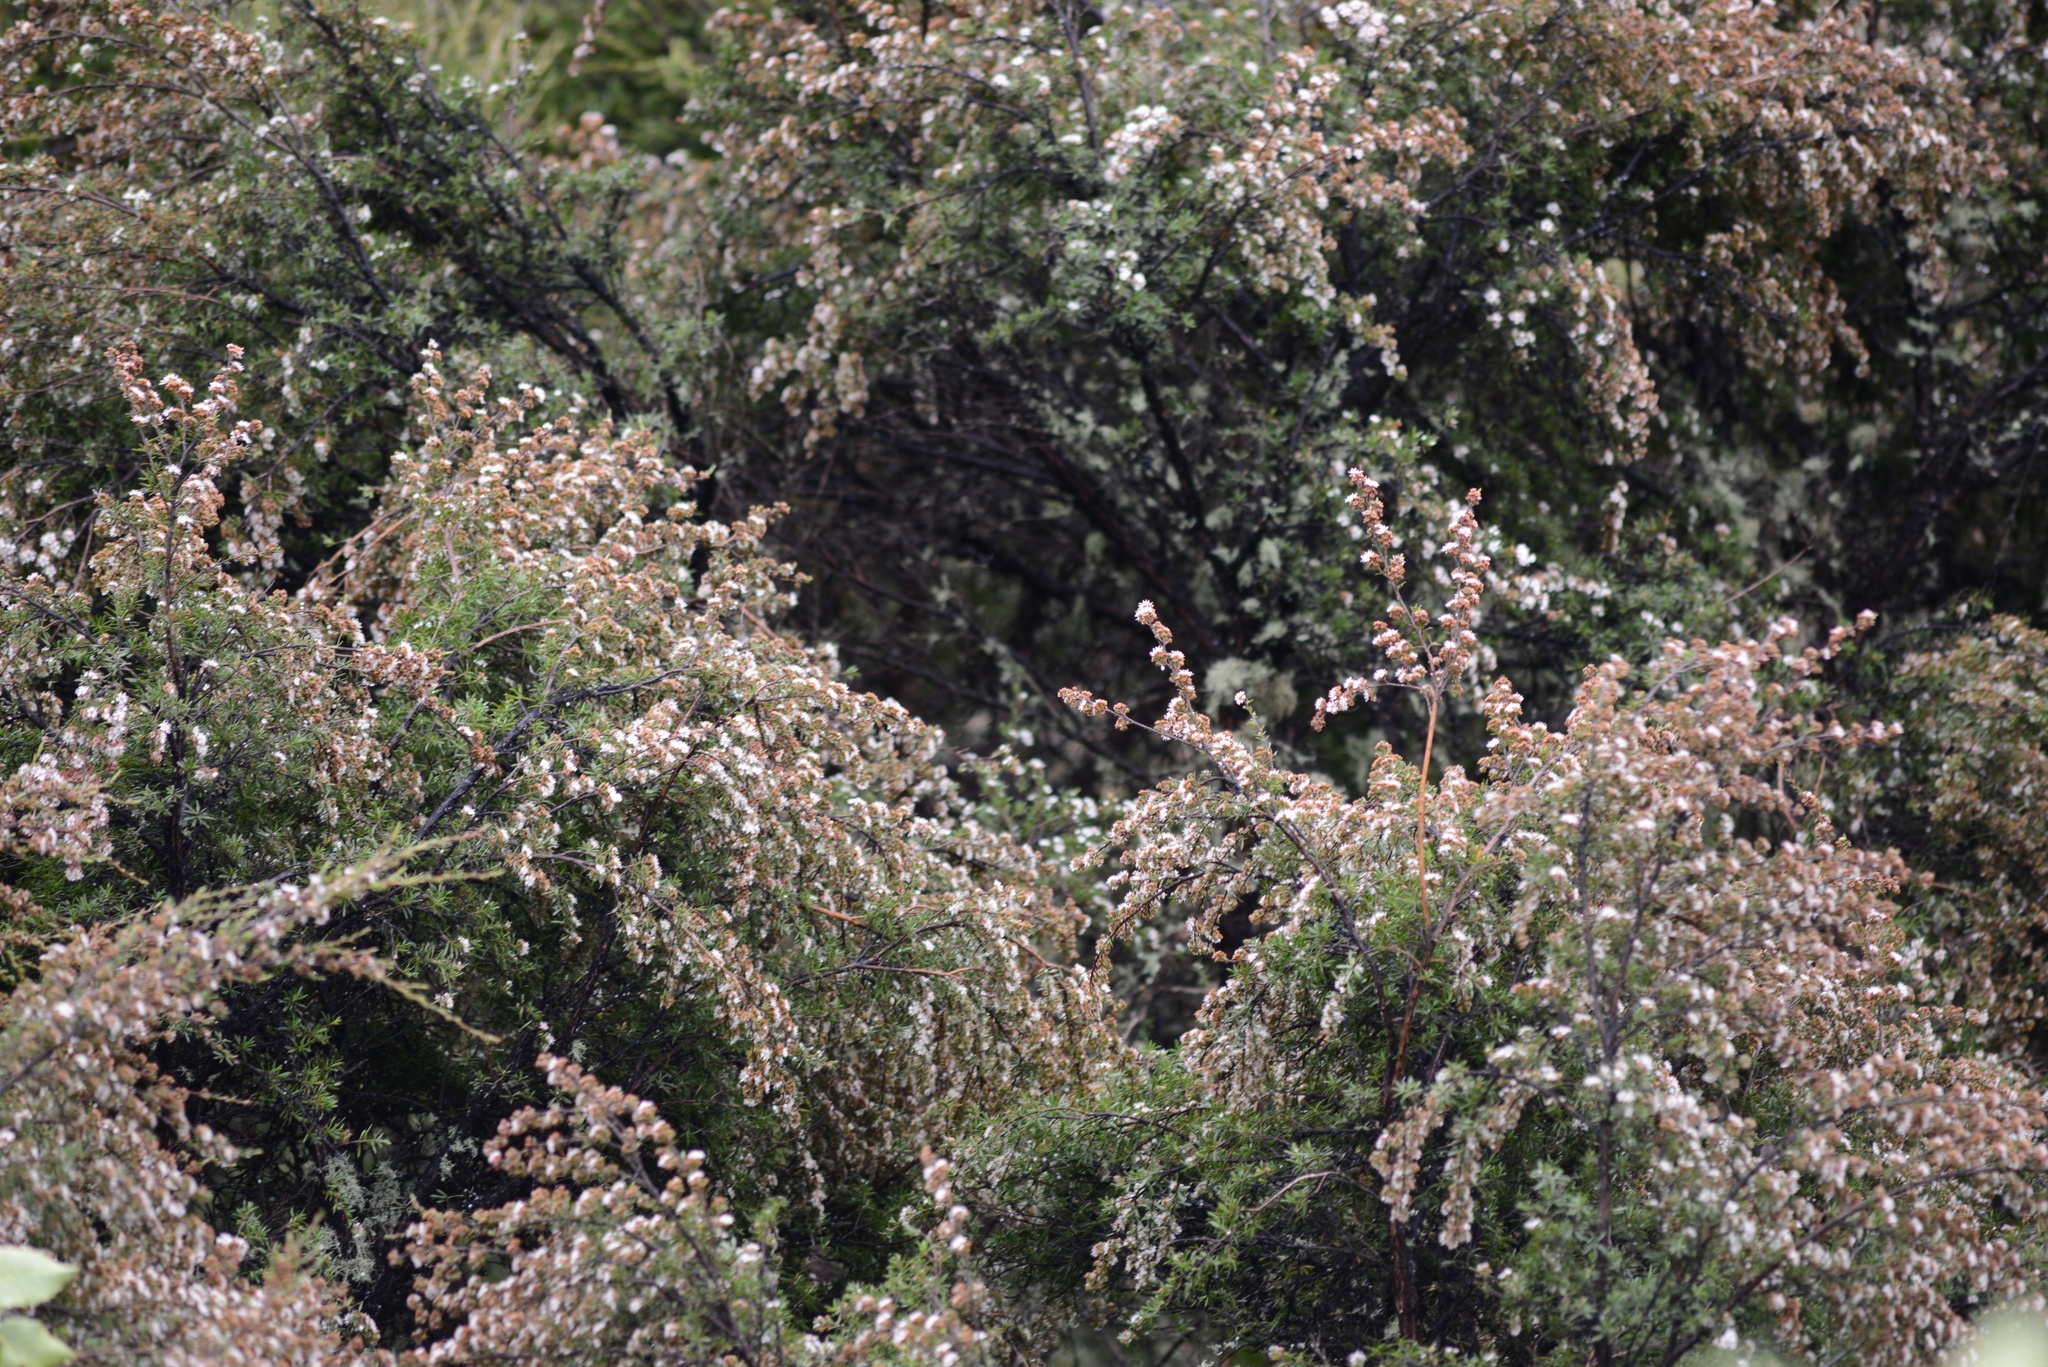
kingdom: Plantae
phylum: Tracheophyta
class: Magnoliopsida
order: Myrtales
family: Myrtaceae
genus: Kunzea
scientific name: Kunzea robusta
